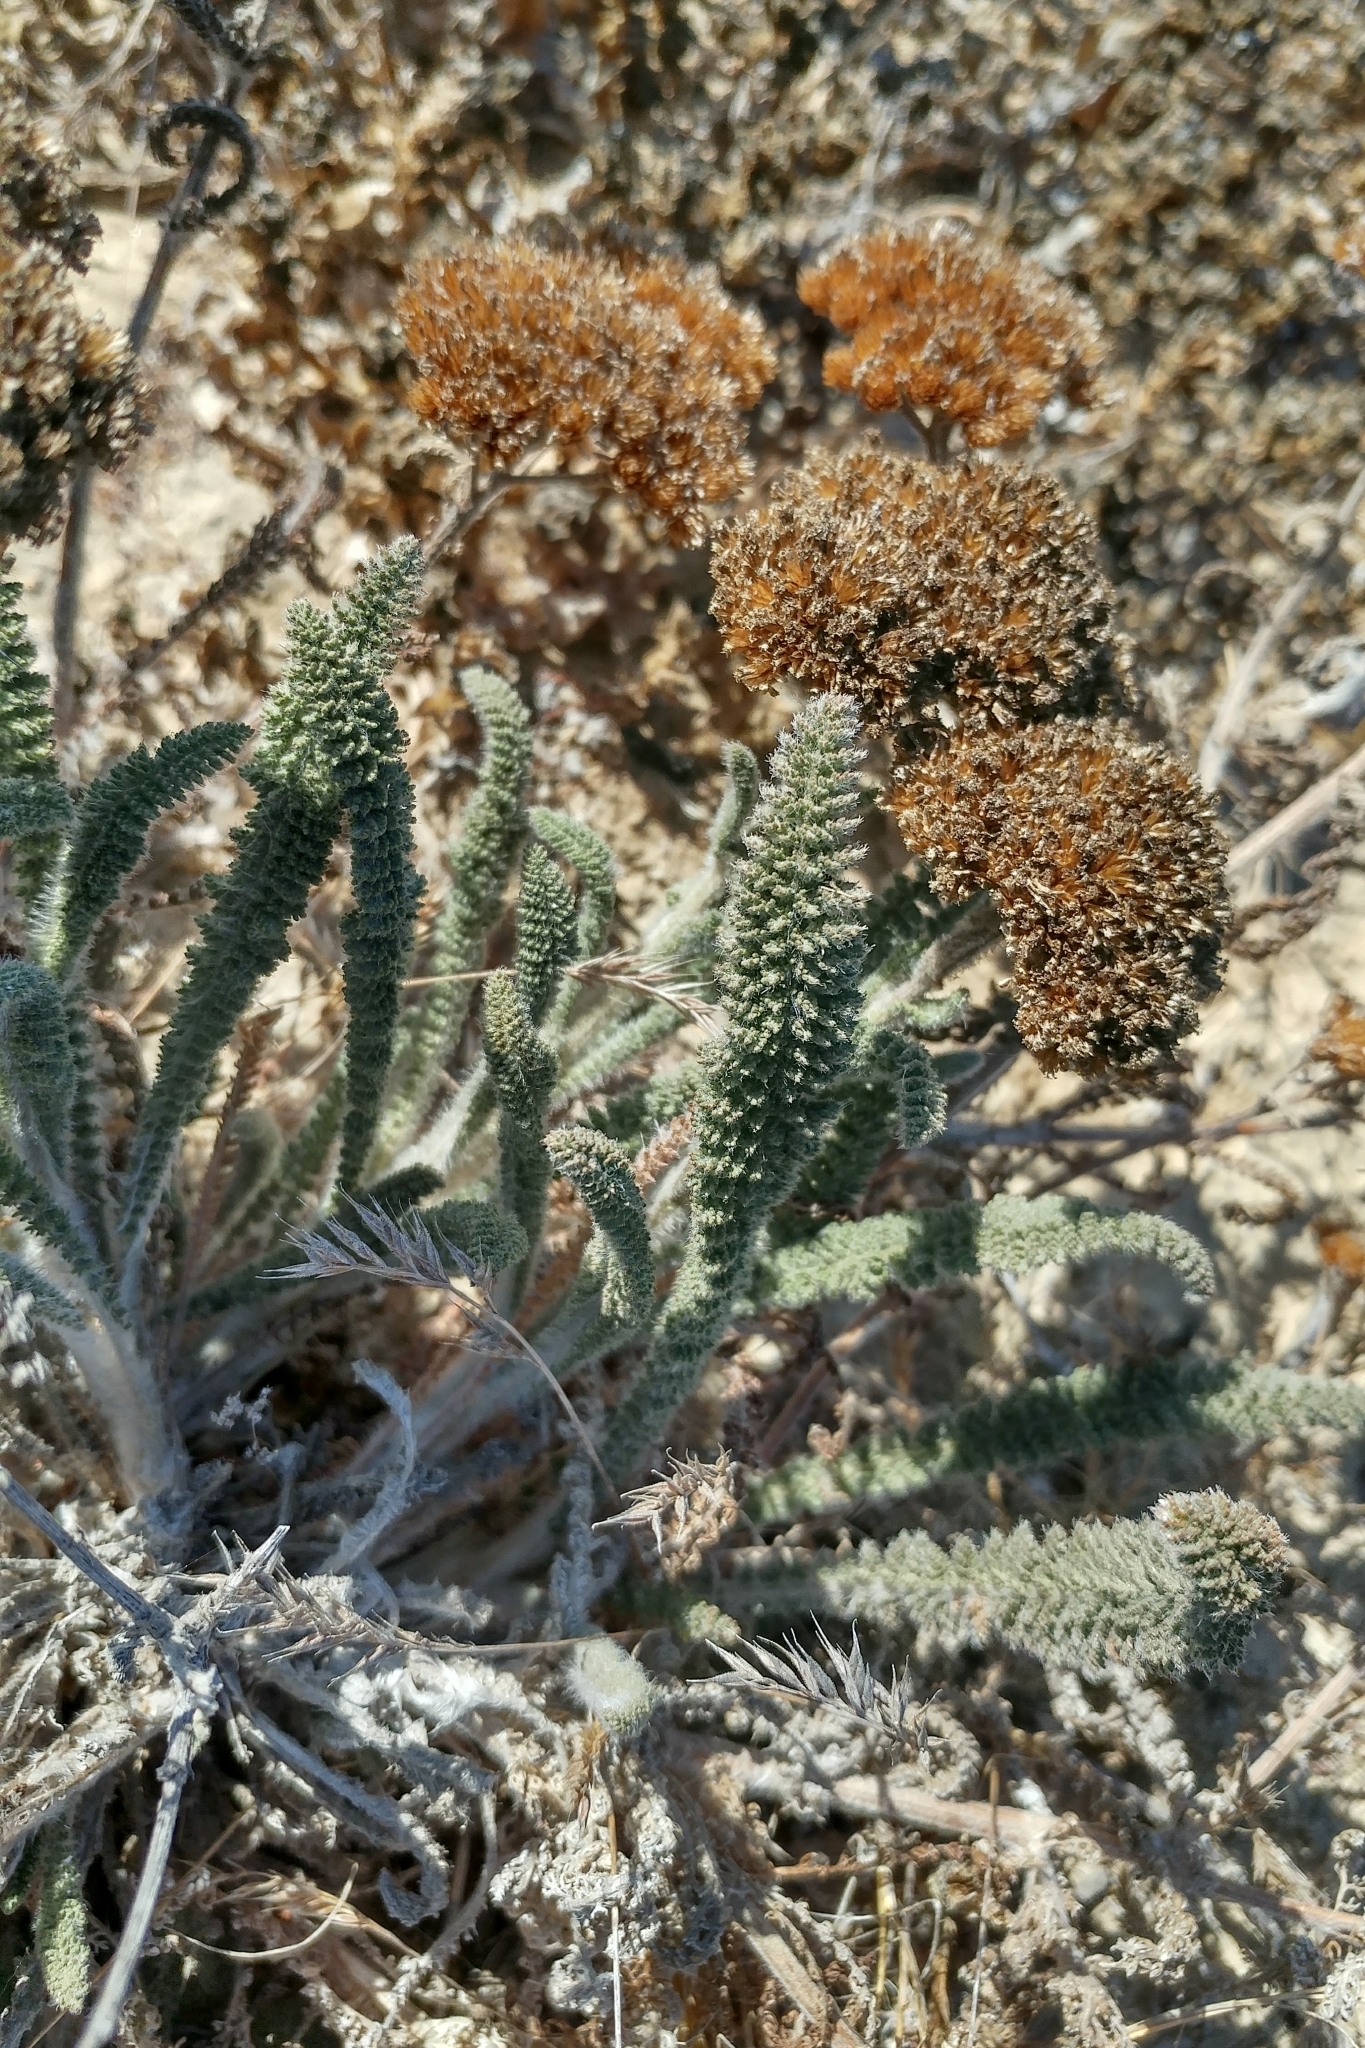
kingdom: Plantae
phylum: Tracheophyta
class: Magnoliopsida
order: Asterales
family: Asteraceae
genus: Achillea
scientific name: Achillea millefolium
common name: Yarrow
